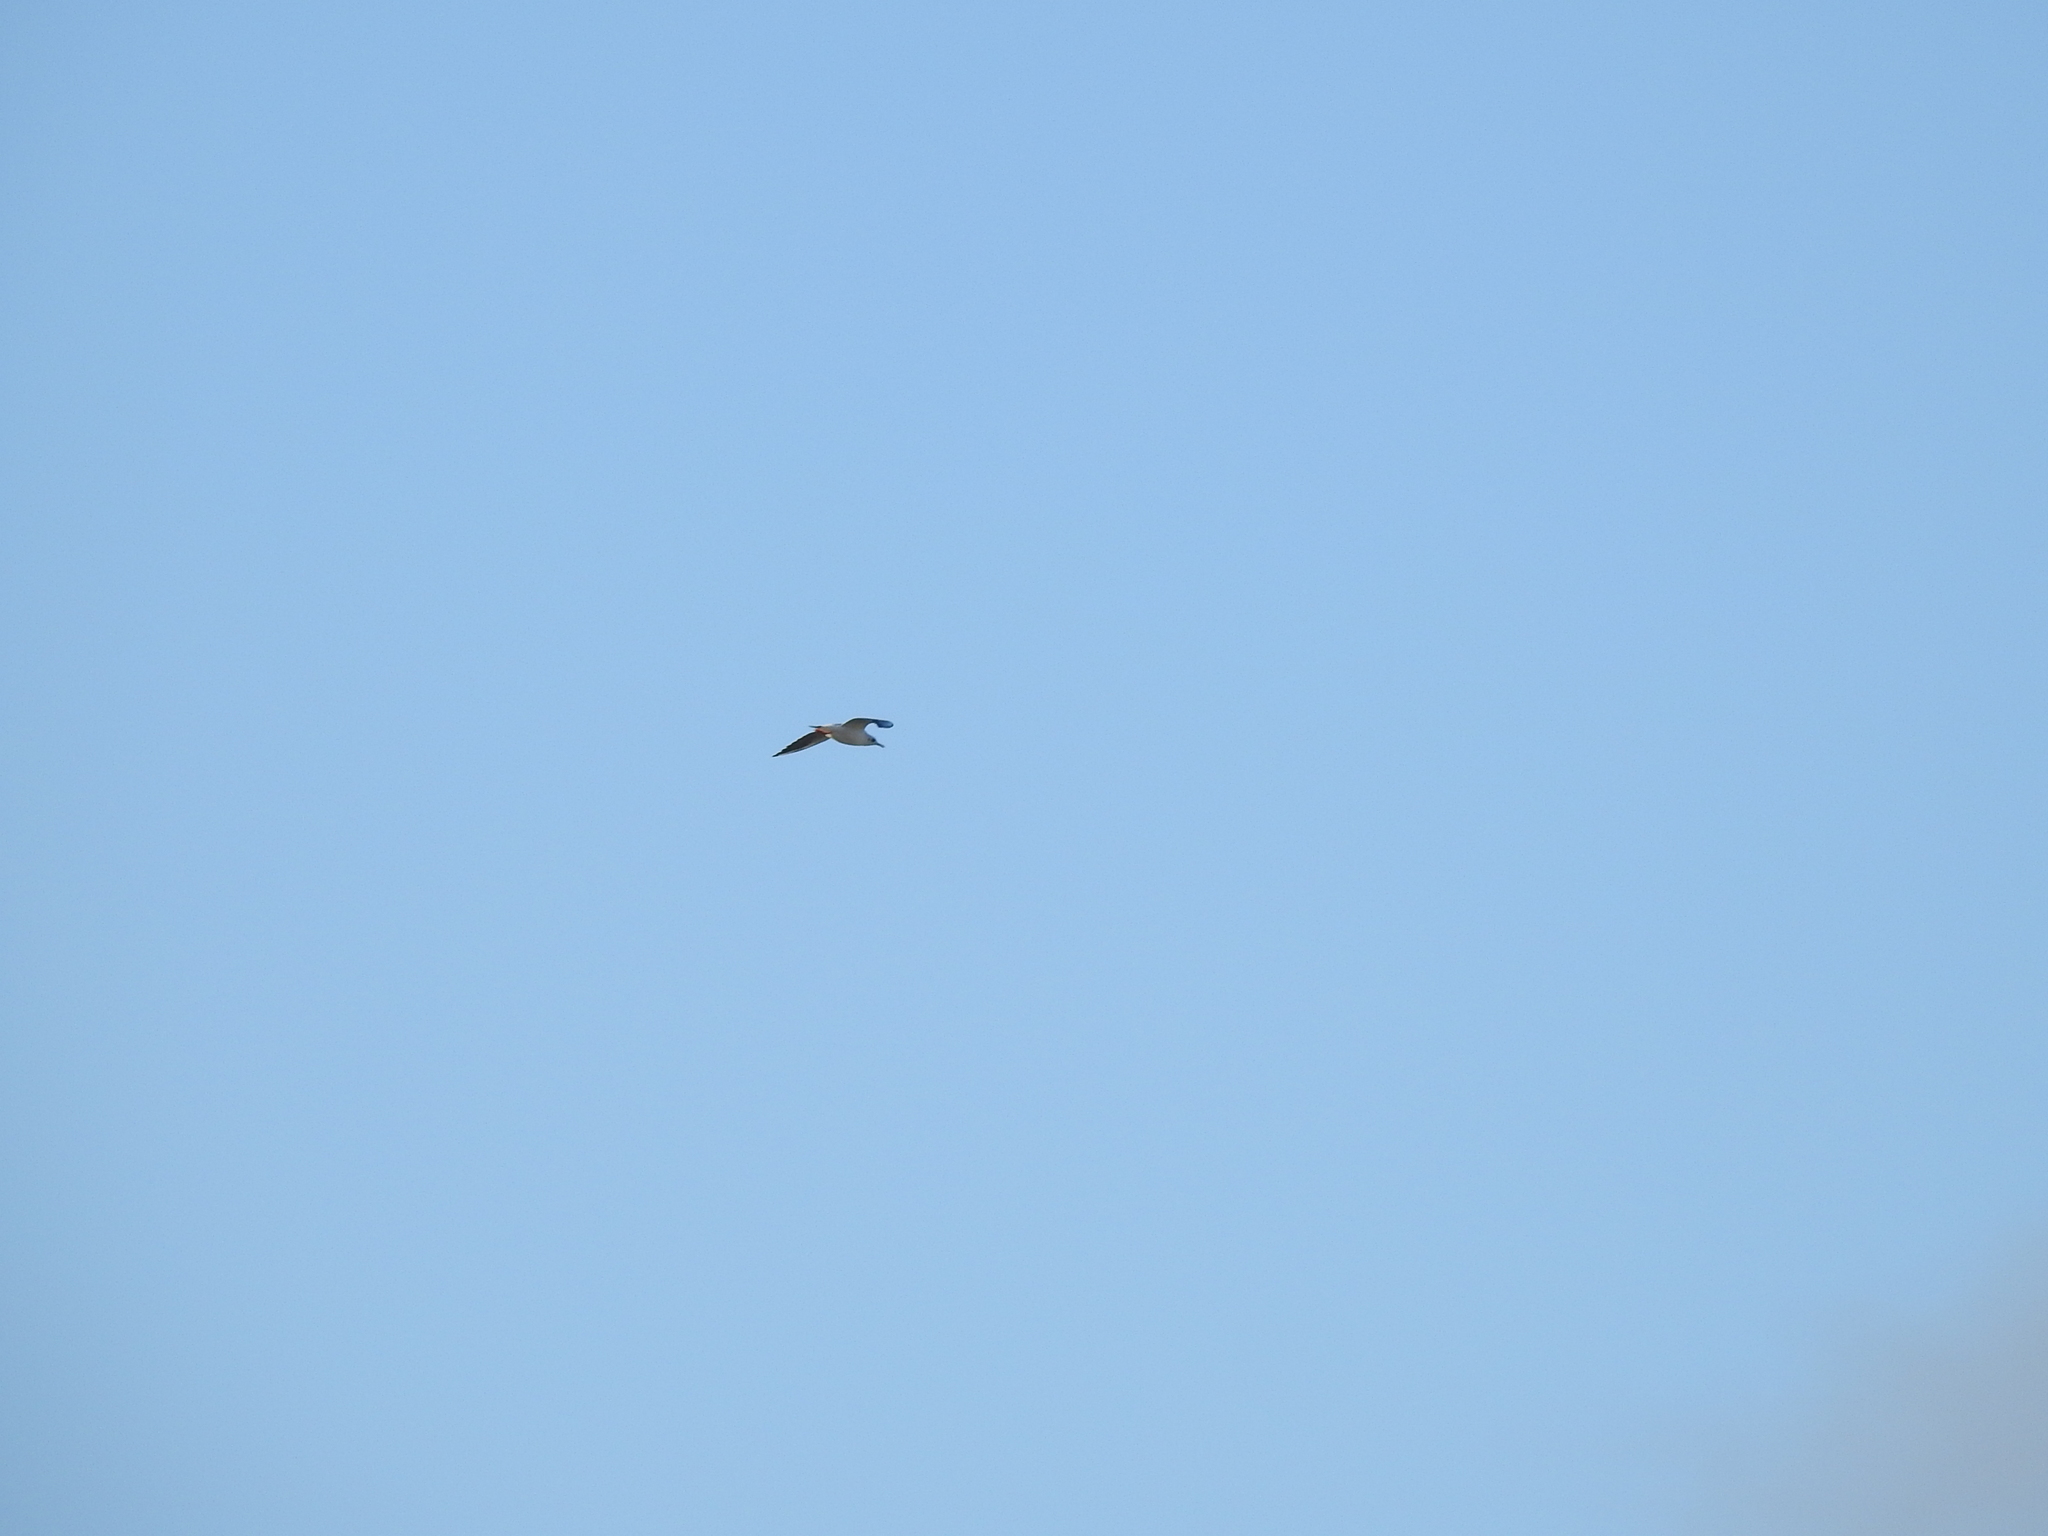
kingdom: Animalia
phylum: Chordata
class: Aves
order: Charadriiformes
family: Laridae
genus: Chroicocephalus
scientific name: Chroicocephalus ridibundus
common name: Black-headed gull
